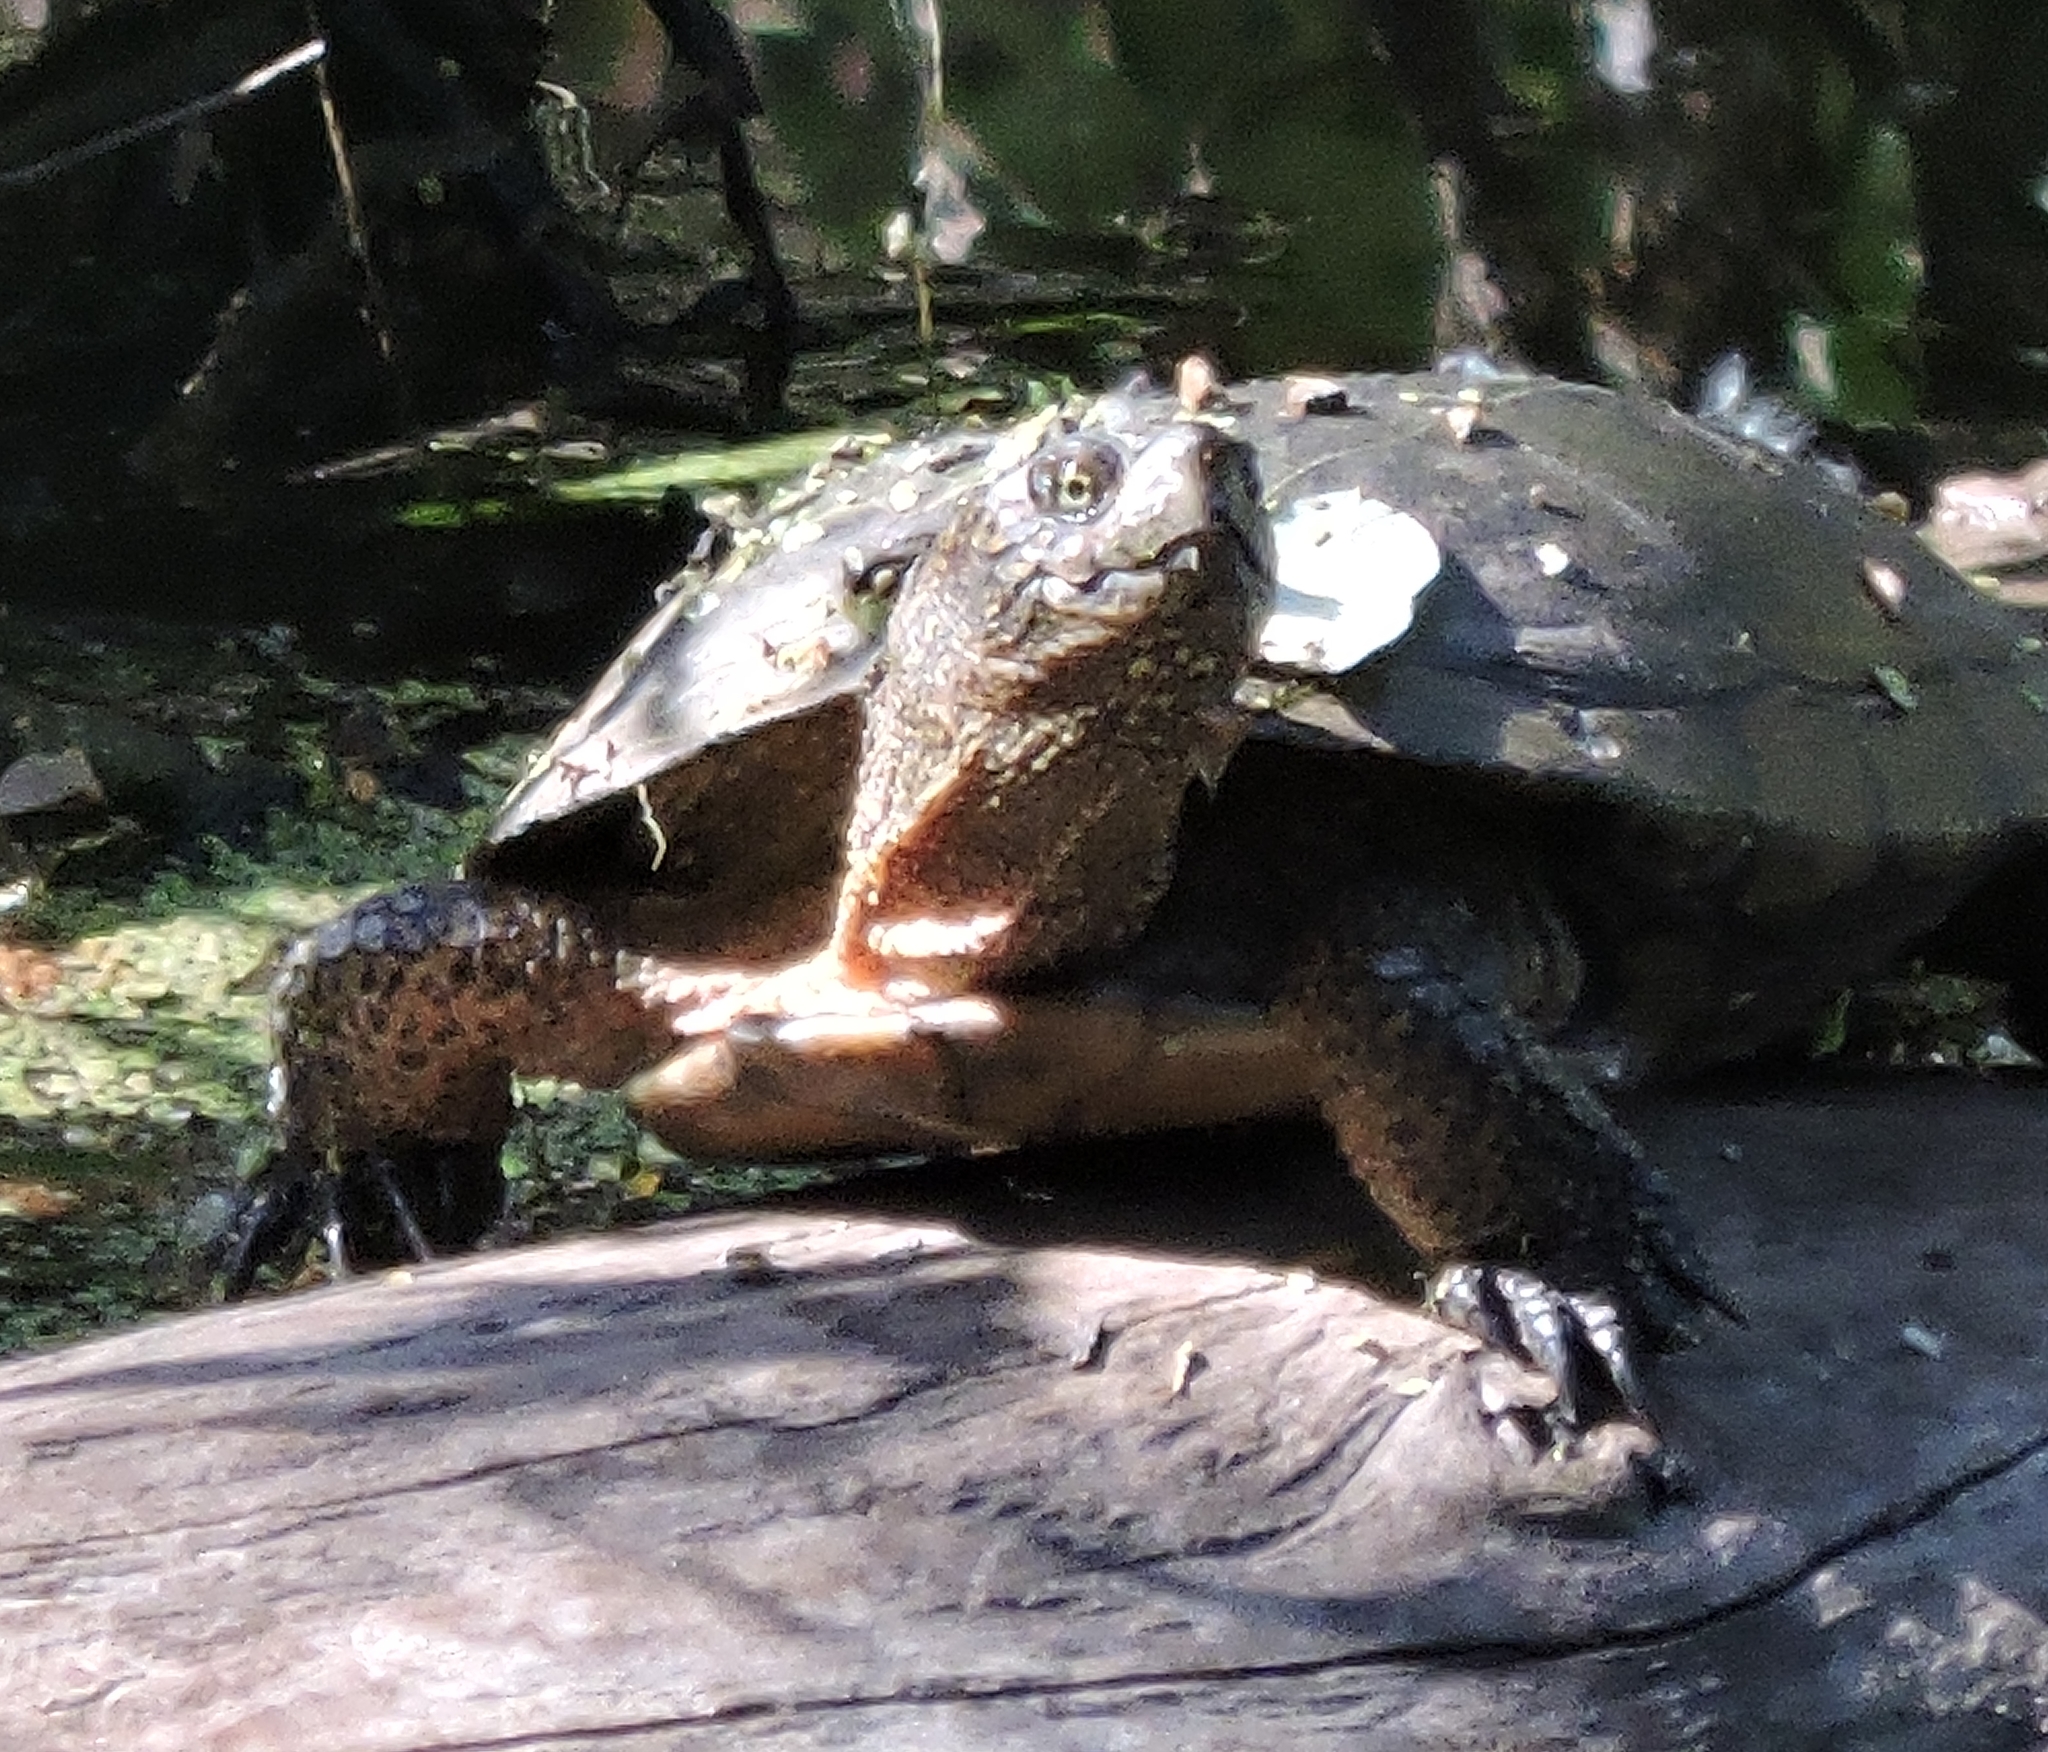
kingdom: Animalia
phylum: Chordata
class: Testudines
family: Emydidae
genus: Actinemys
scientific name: Actinemys marmorata
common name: Western pond turtle
